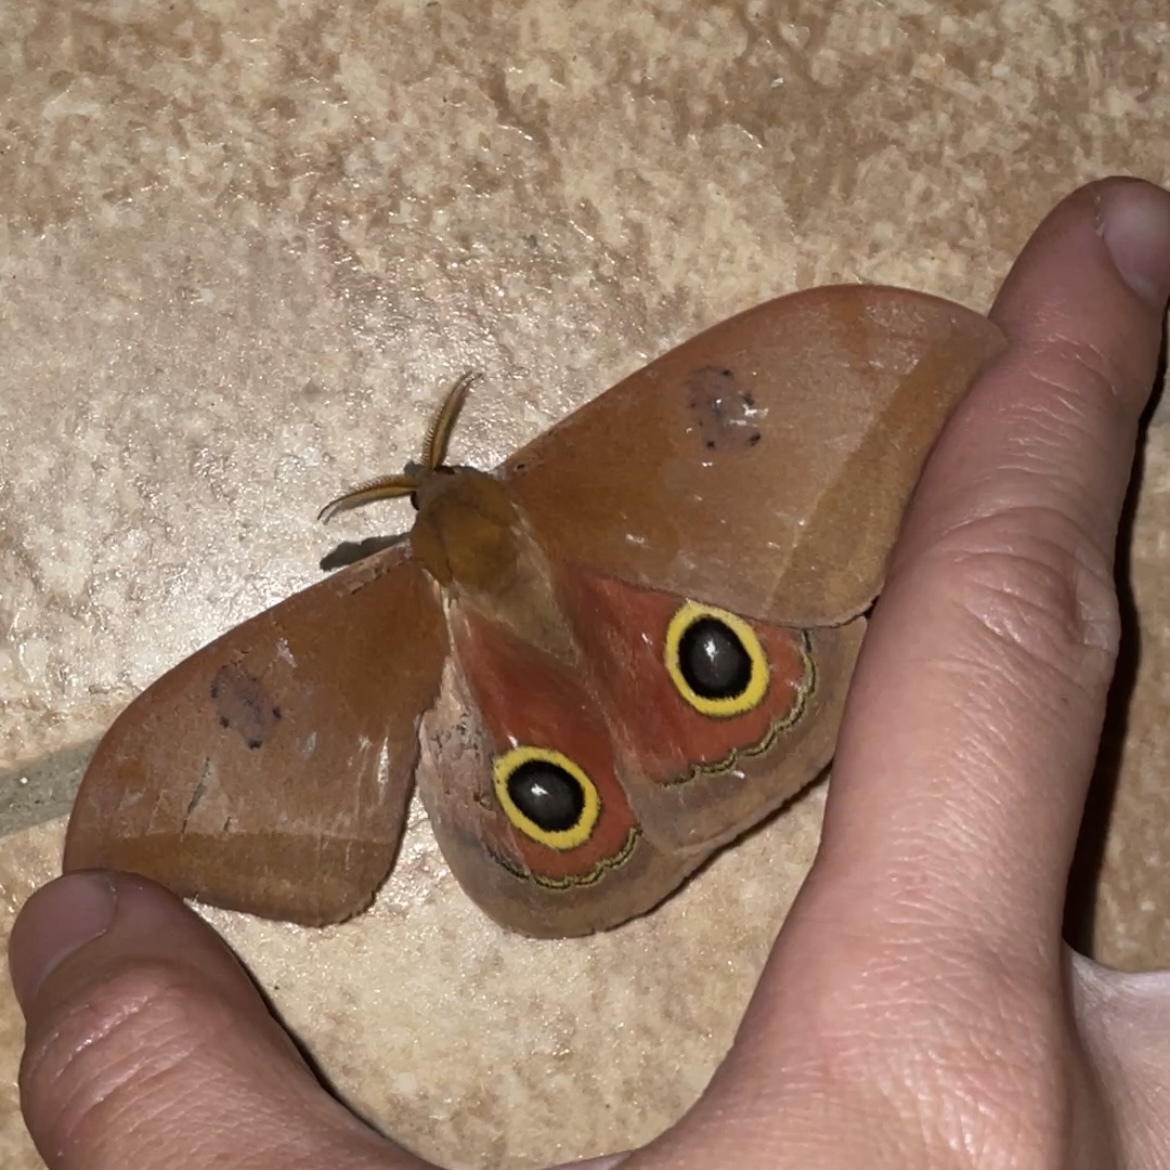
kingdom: Animalia
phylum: Arthropoda
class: Insecta
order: Lepidoptera
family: Saturniidae
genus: Automeris
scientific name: Automeris midea
